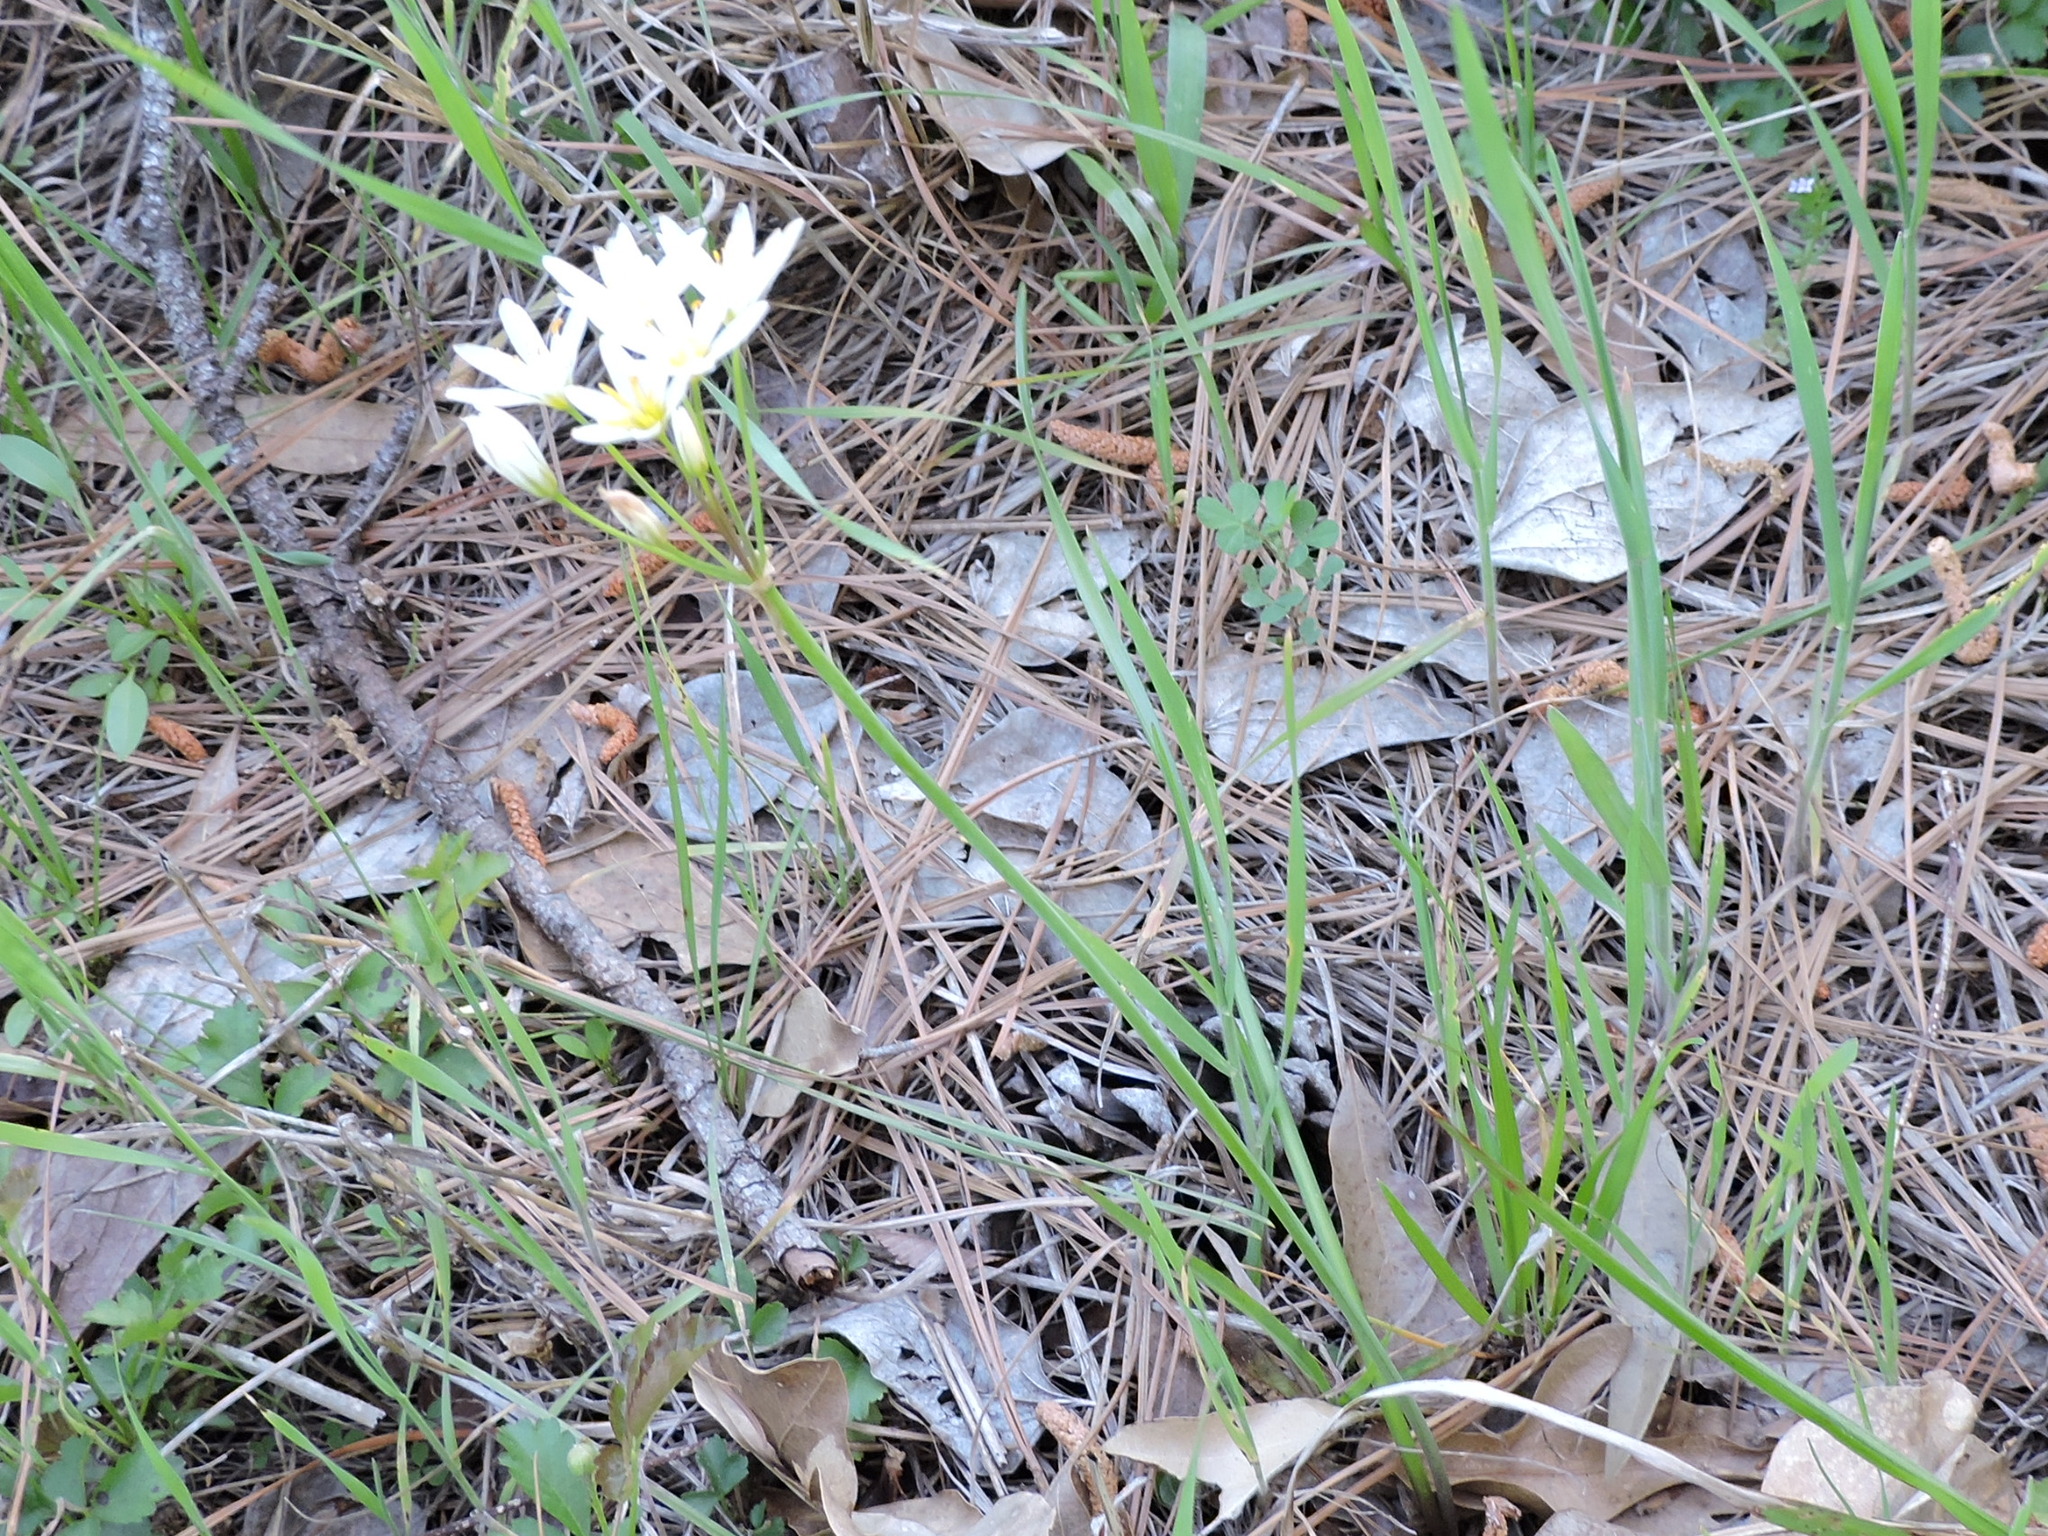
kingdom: Plantae
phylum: Tracheophyta
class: Liliopsida
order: Asparagales
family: Amaryllidaceae
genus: Nothoscordum
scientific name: Nothoscordum bivalve
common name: Crow-poison
